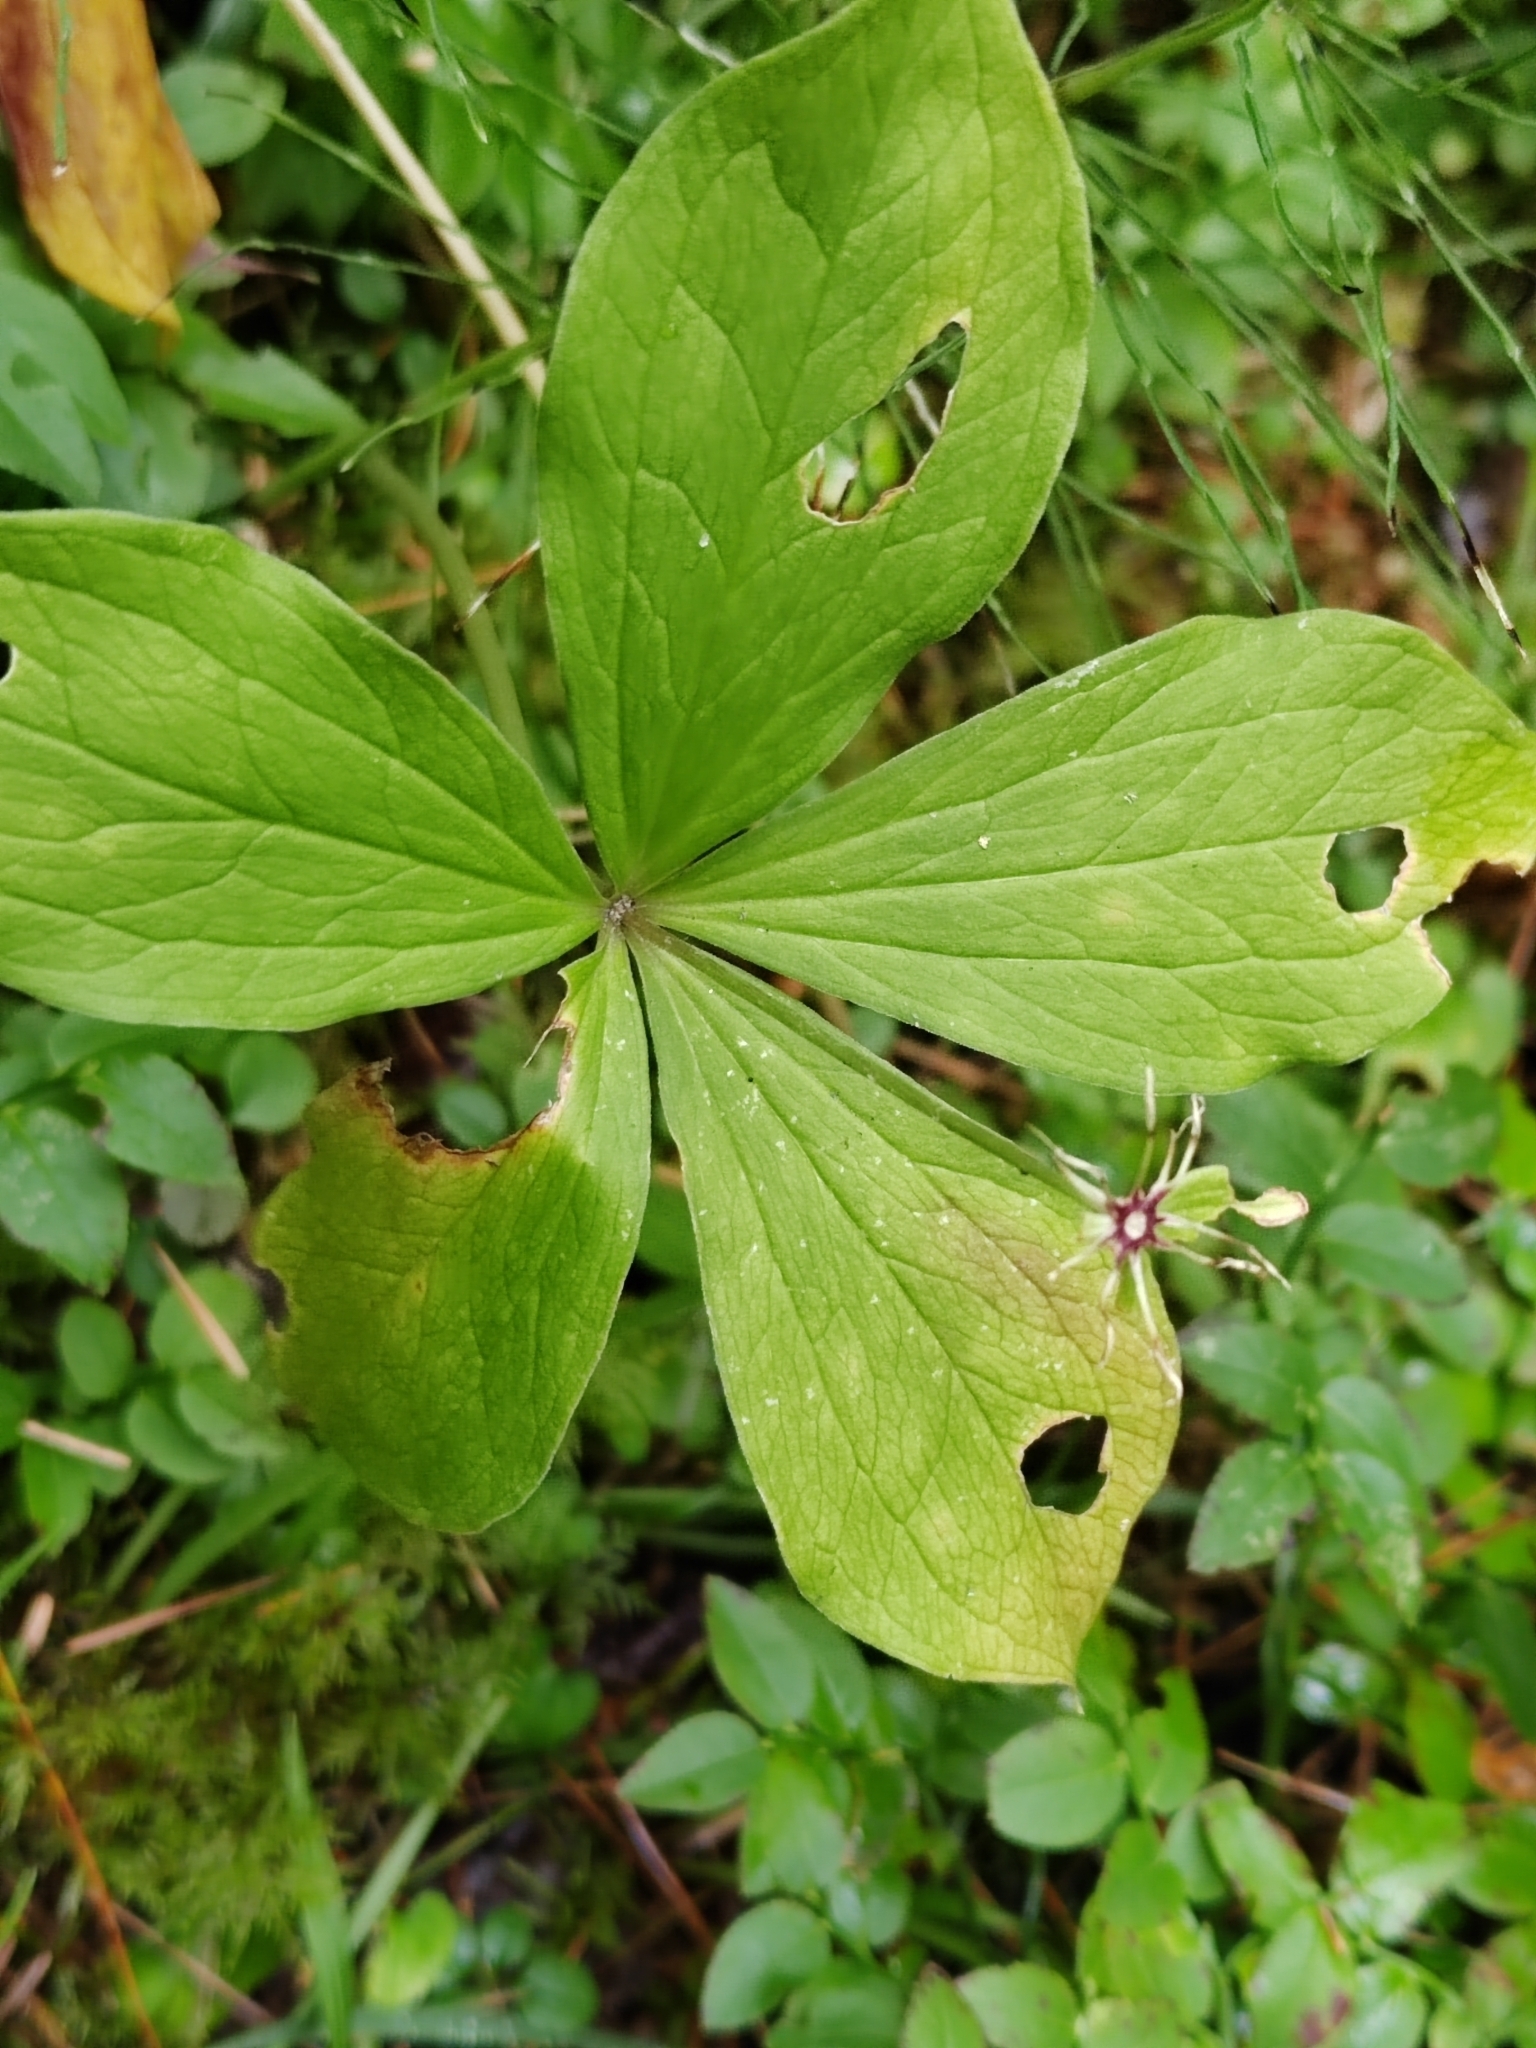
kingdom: Plantae
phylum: Tracheophyta
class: Liliopsida
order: Liliales
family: Melanthiaceae
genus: Paris
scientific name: Paris quadrifolia
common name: Herb-paris
